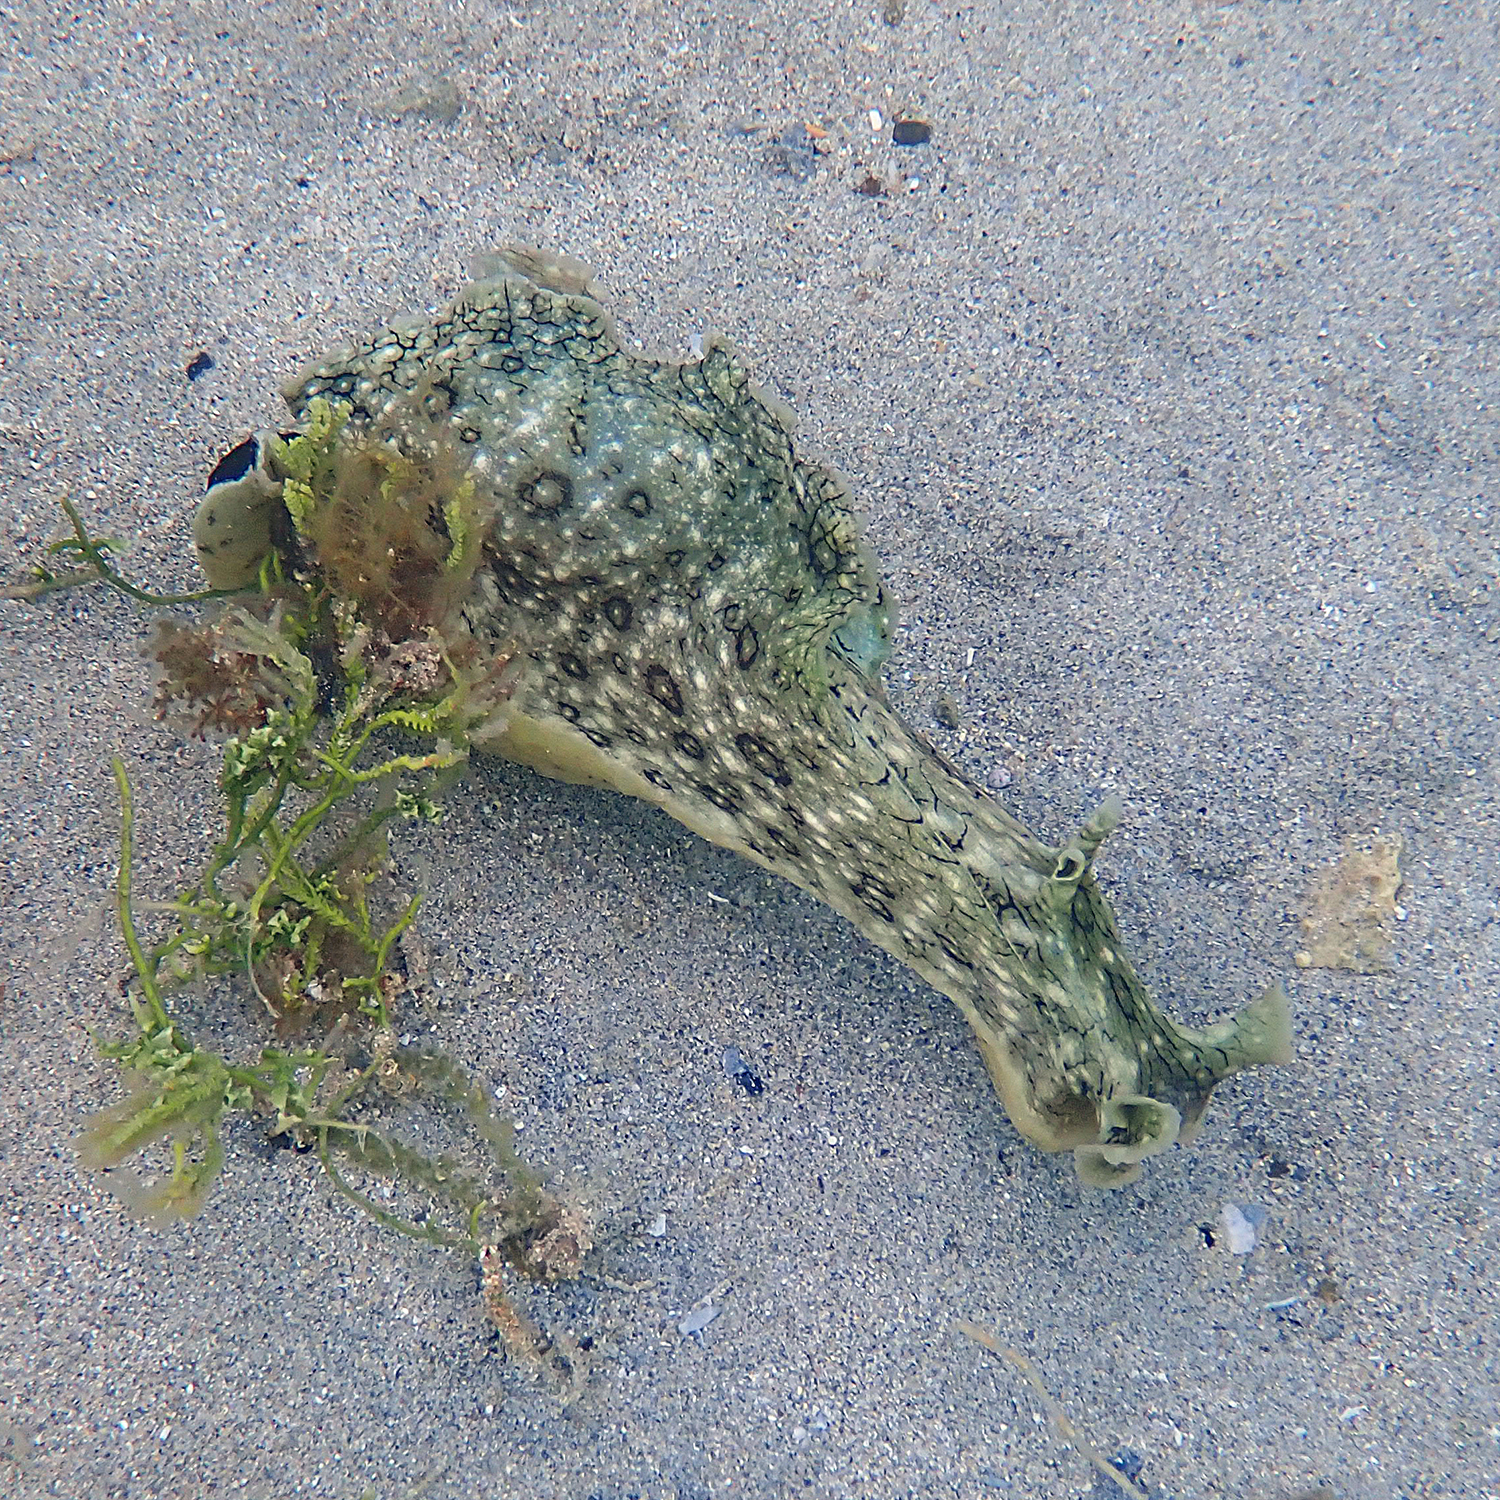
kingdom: Animalia
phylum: Mollusca
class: Gastropoda
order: Aplysiida
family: Aplysiidae
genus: Aplysia
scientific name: Aplysia argus
